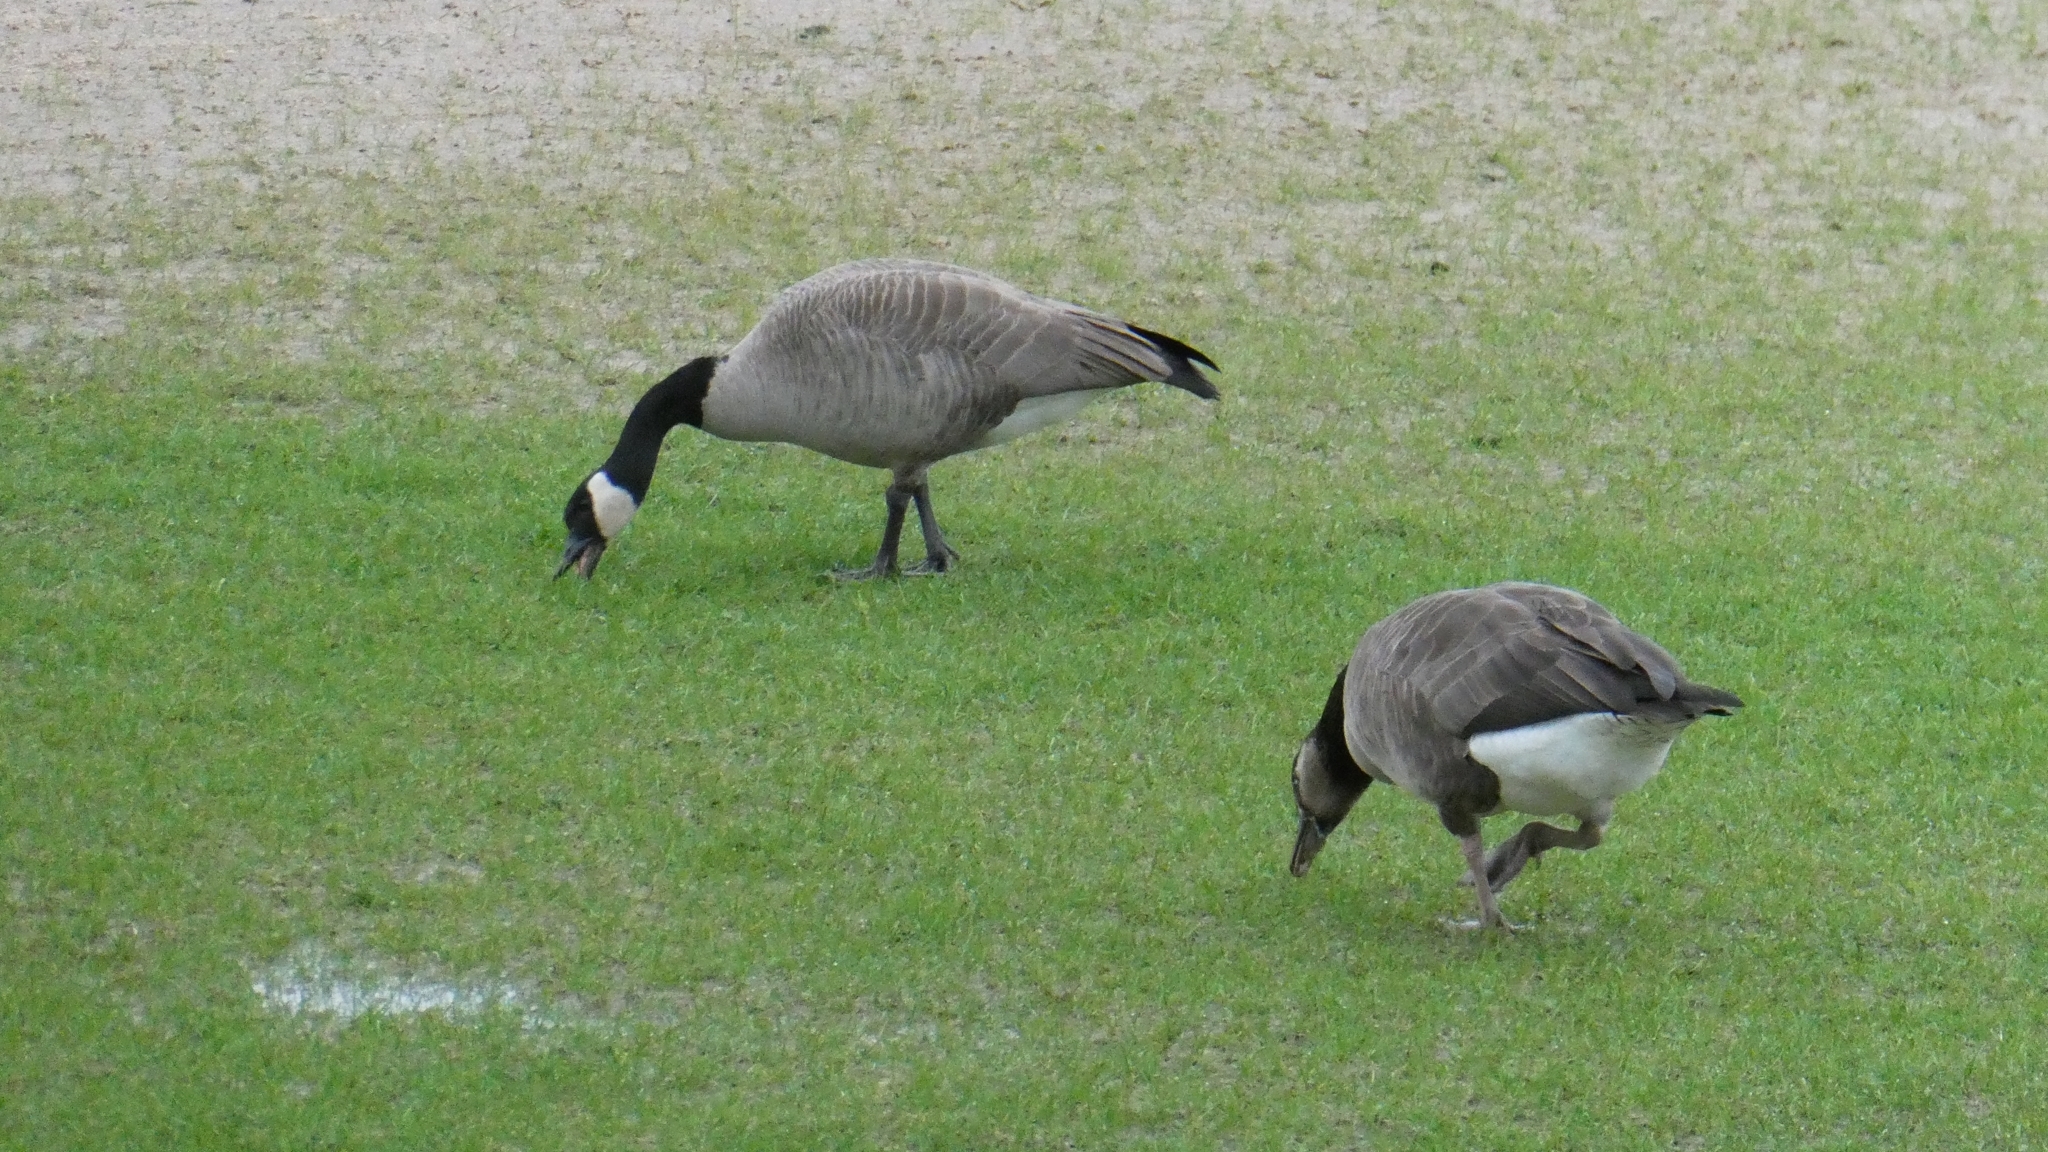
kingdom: Animalia
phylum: Chordata
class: Aves
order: Anseriformes
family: Anatidae
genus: Branta
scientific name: Branta canadensis
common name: Canada goose
